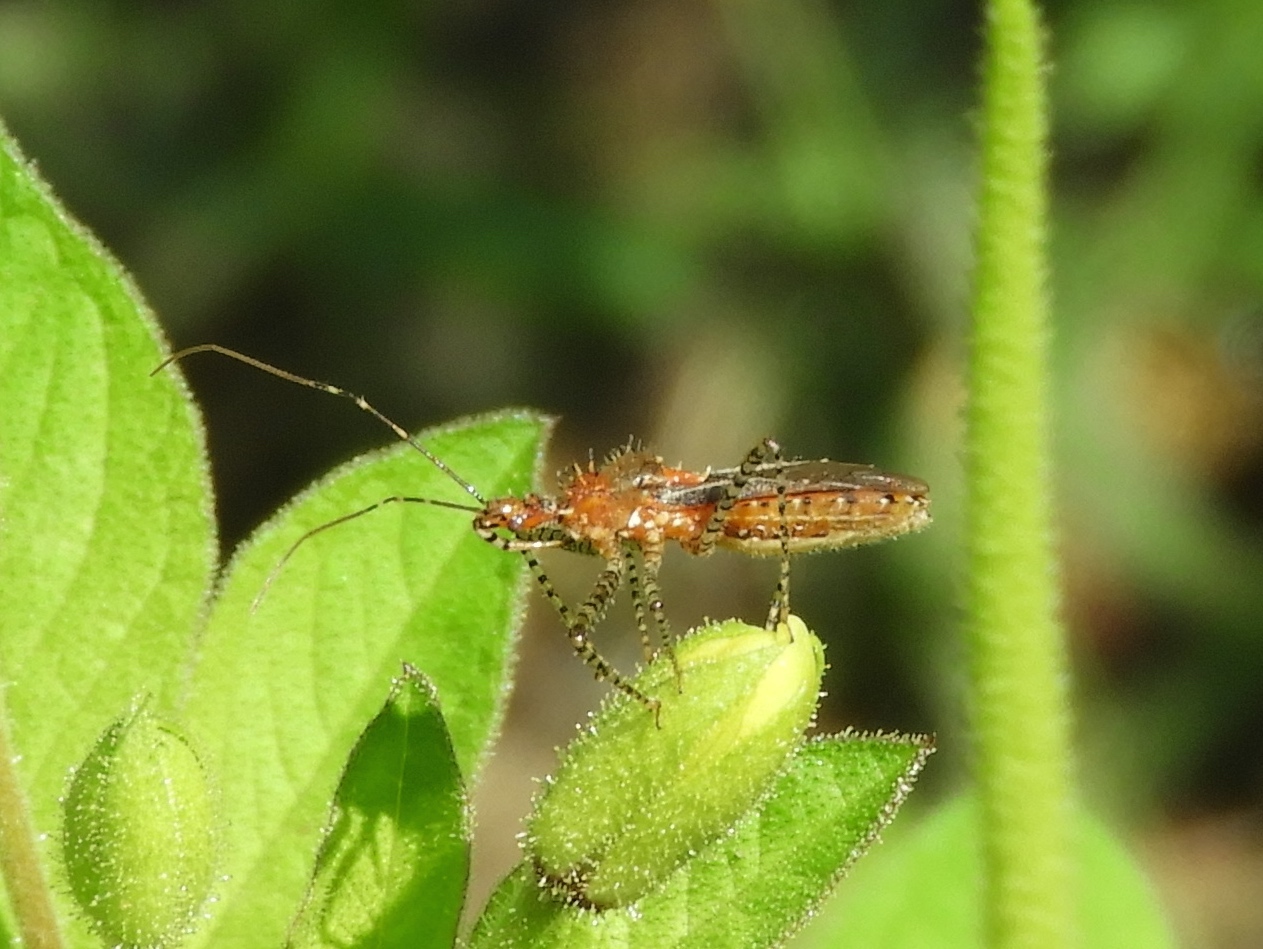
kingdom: Animalia
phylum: Arthropoda
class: Insecta
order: Hemiptera
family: Reduviidae
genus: Pselliopus
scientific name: Pselliopus
